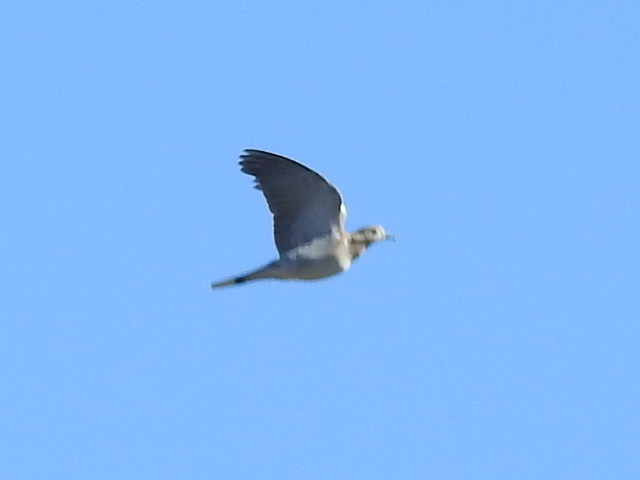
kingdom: Animalia
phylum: Chordata
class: Aves
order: Columbiformes
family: Columbidae
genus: Zenaida
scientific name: Zenaida asiatica
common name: White-winged dove
